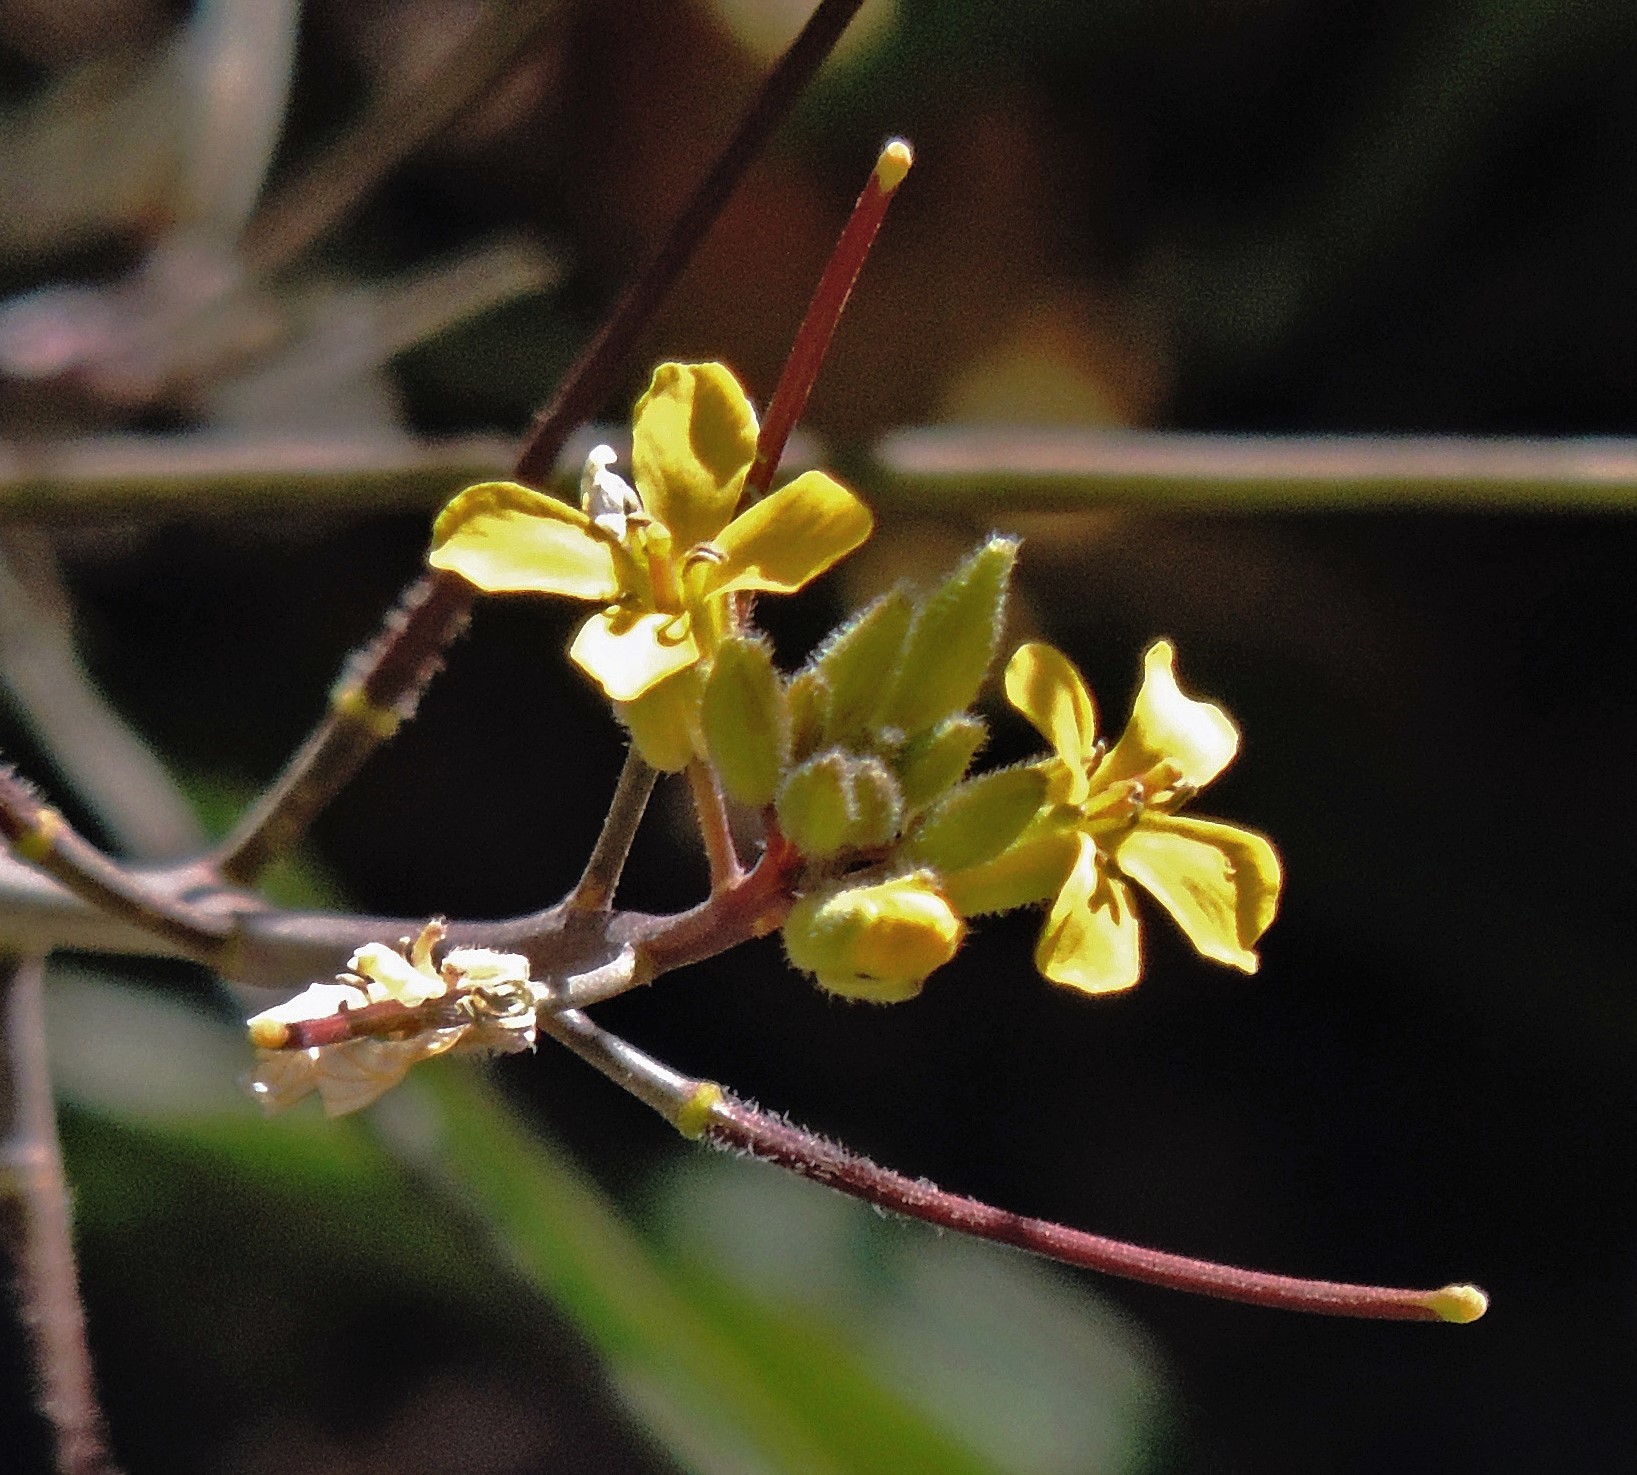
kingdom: Plantae
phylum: Tracheophyta
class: Magnoliopsida
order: Brassicales
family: Brassicaceae
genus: Sisymbrium
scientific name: Sisymbrium orientale
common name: Eastern rocket
